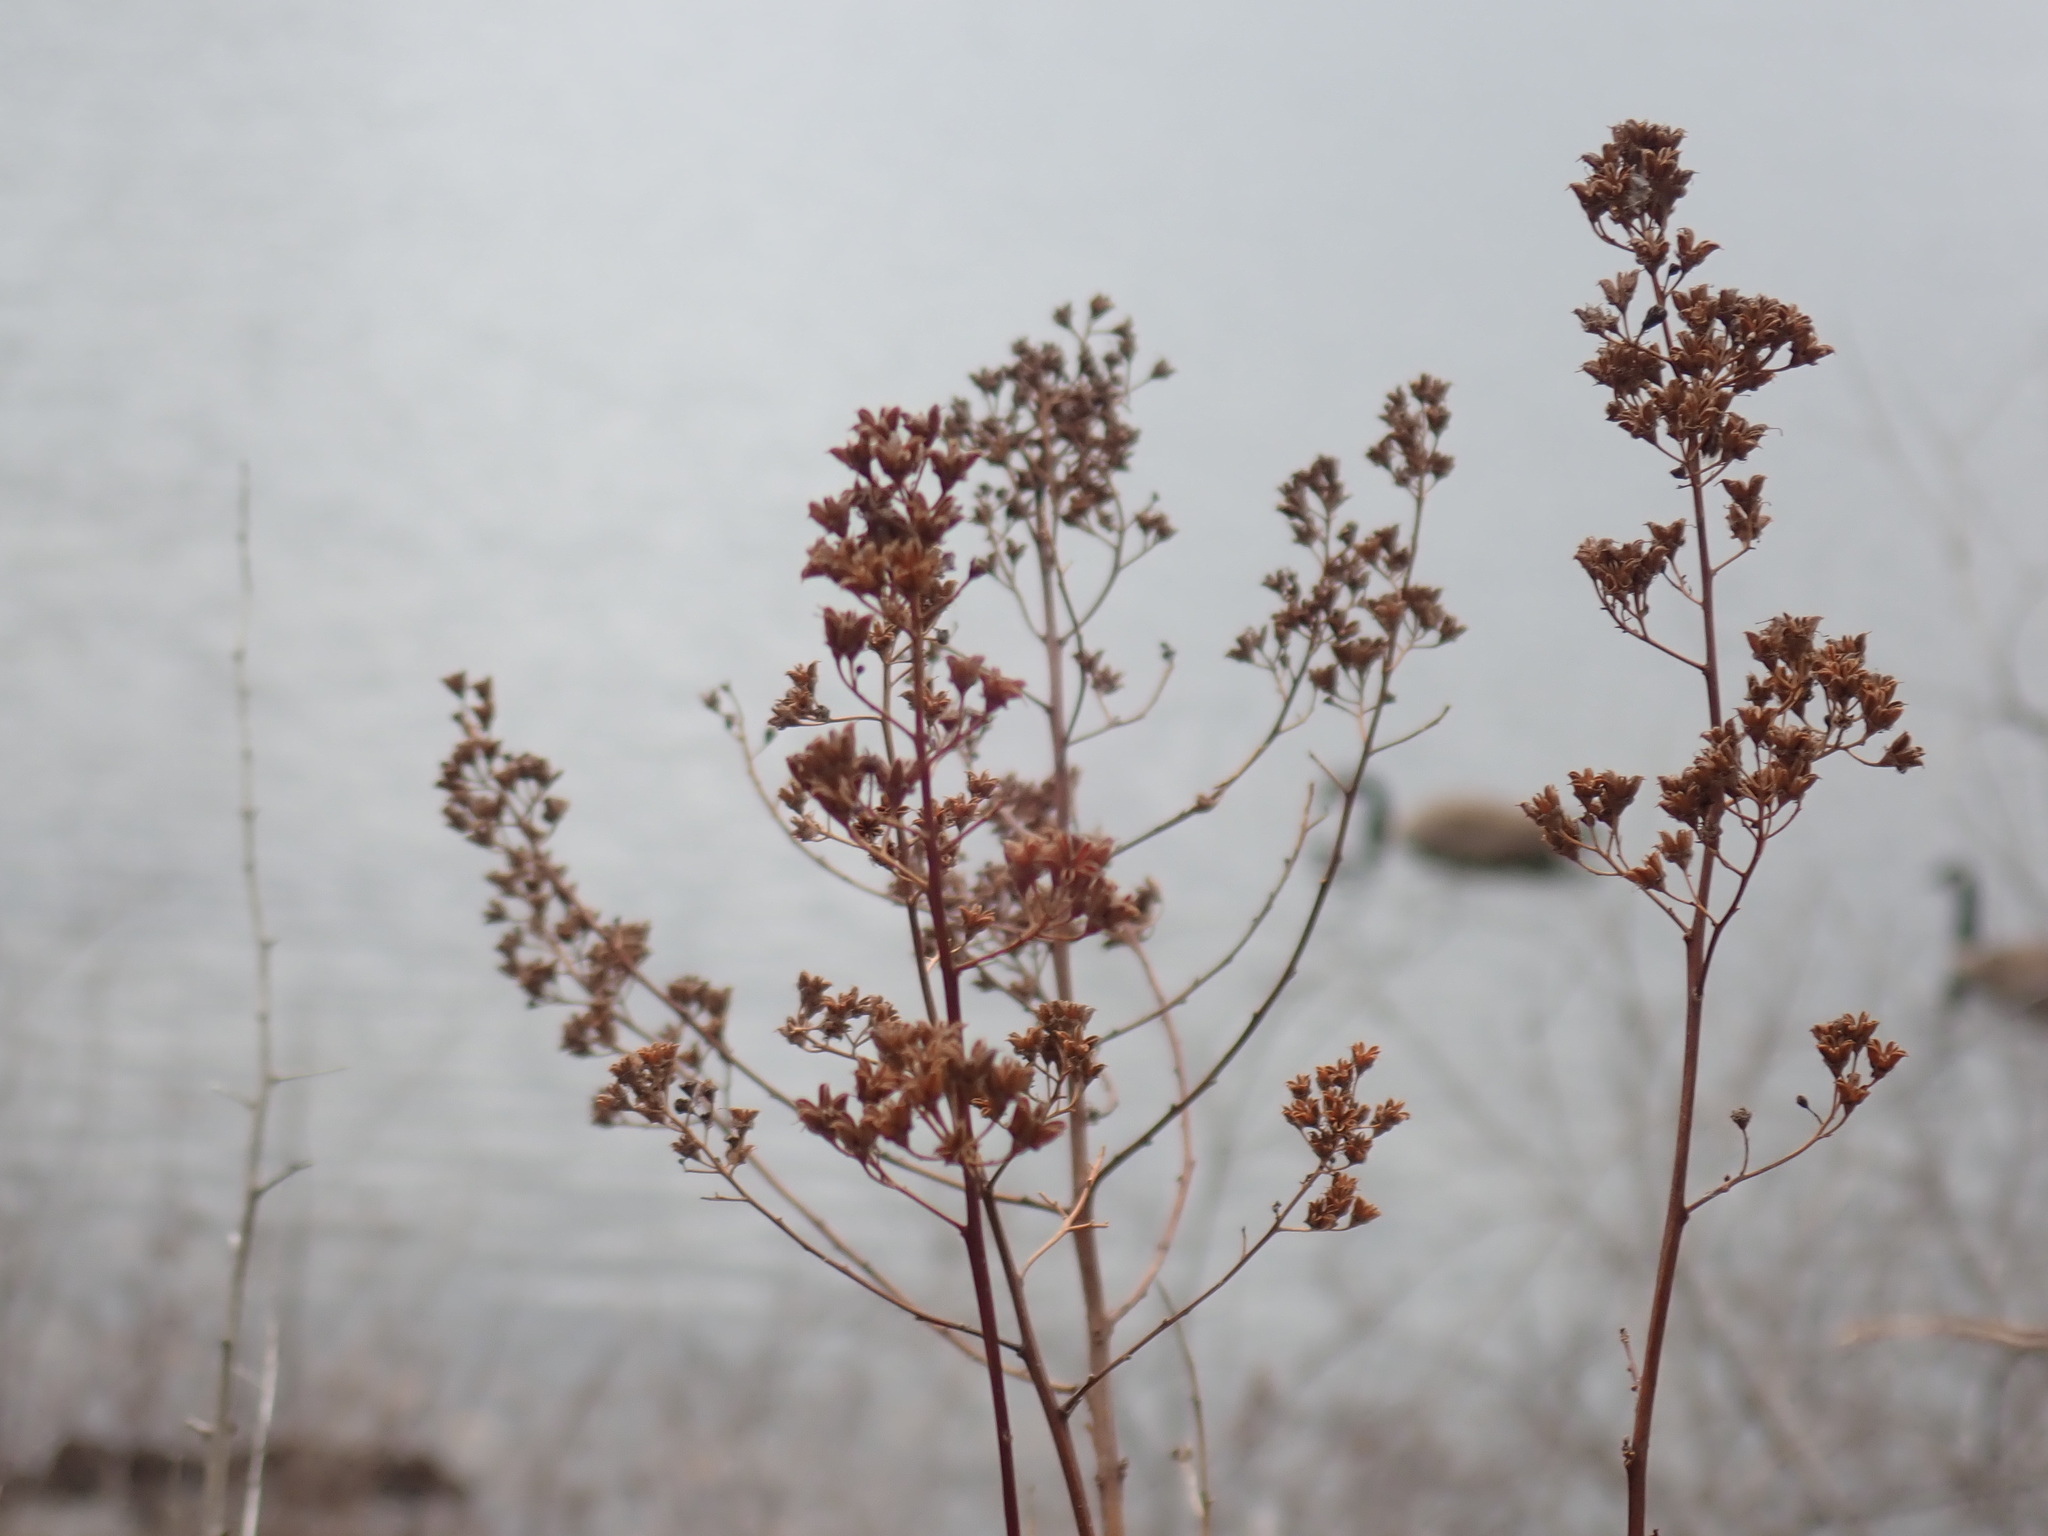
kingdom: Plantae
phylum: Tracheophyta
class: Magnoliopsida
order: Rosales
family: Rosaceae
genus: Spiraea
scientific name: Spiraea alba
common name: Pale bridewort
